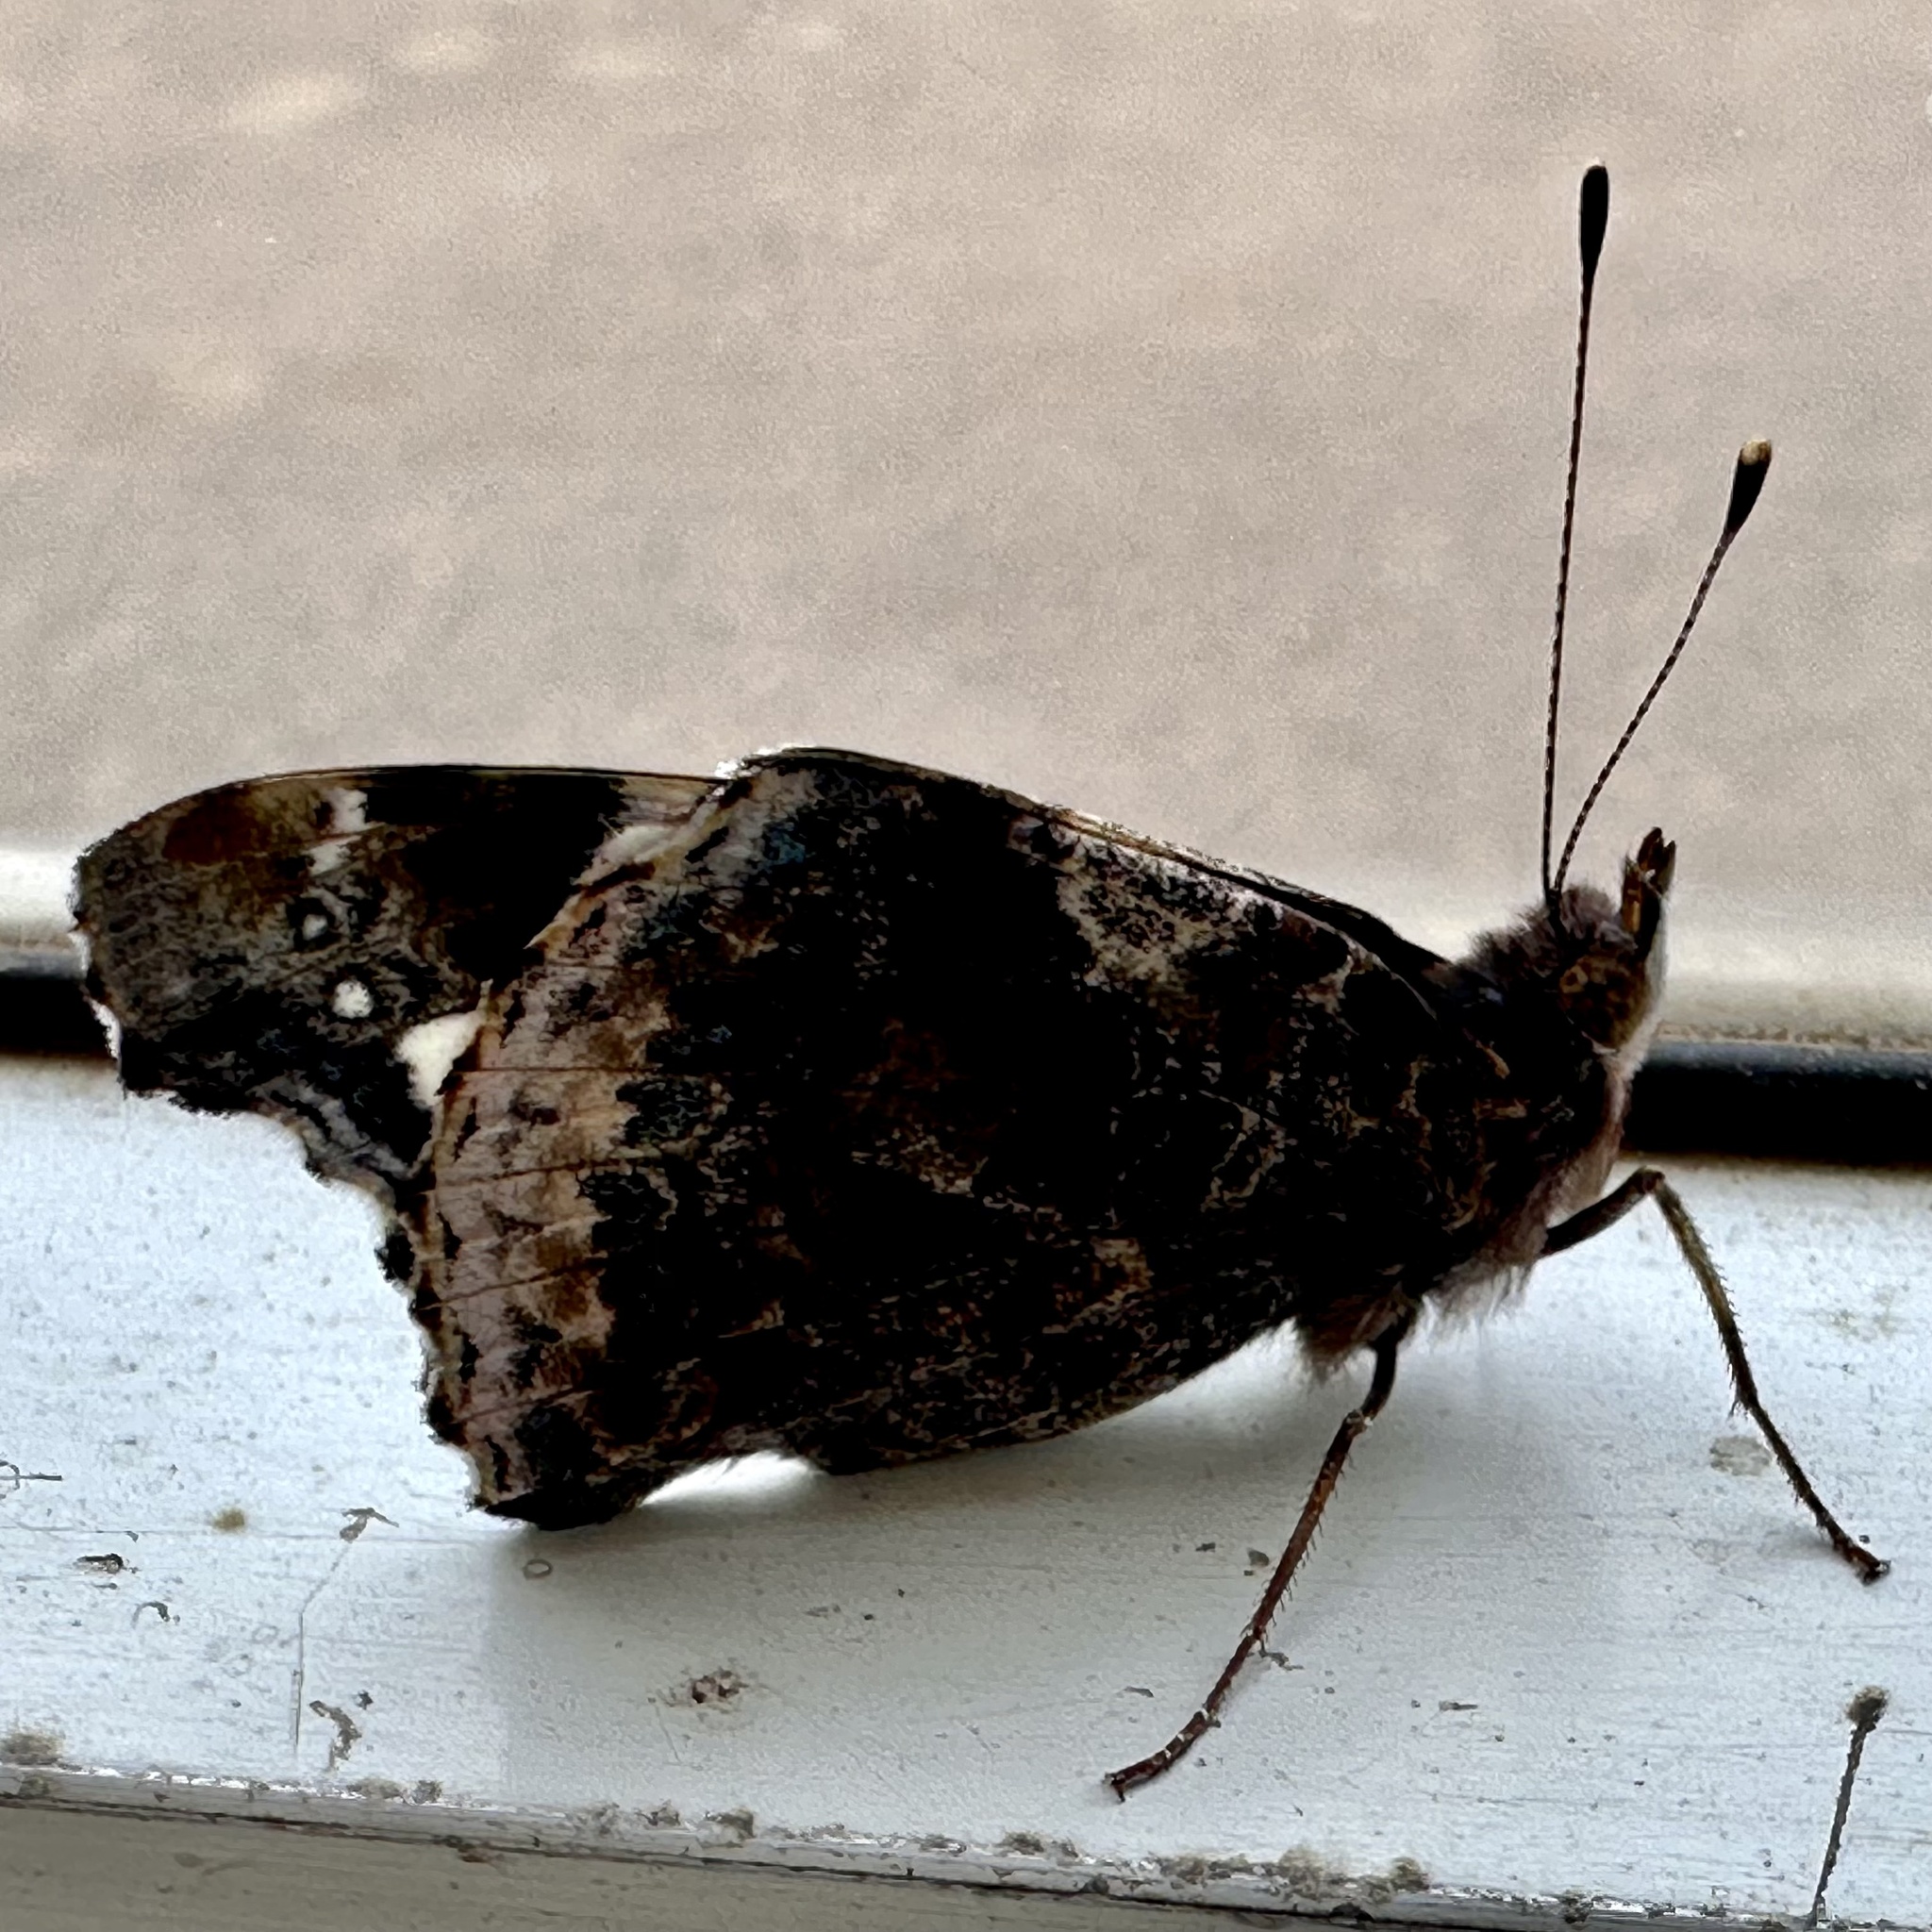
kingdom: Animalia
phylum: Arthropoda
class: Insecta
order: Lepidoptera
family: Nymphalidae
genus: Vanessa
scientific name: Vanessa atalanta
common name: Red admiral
